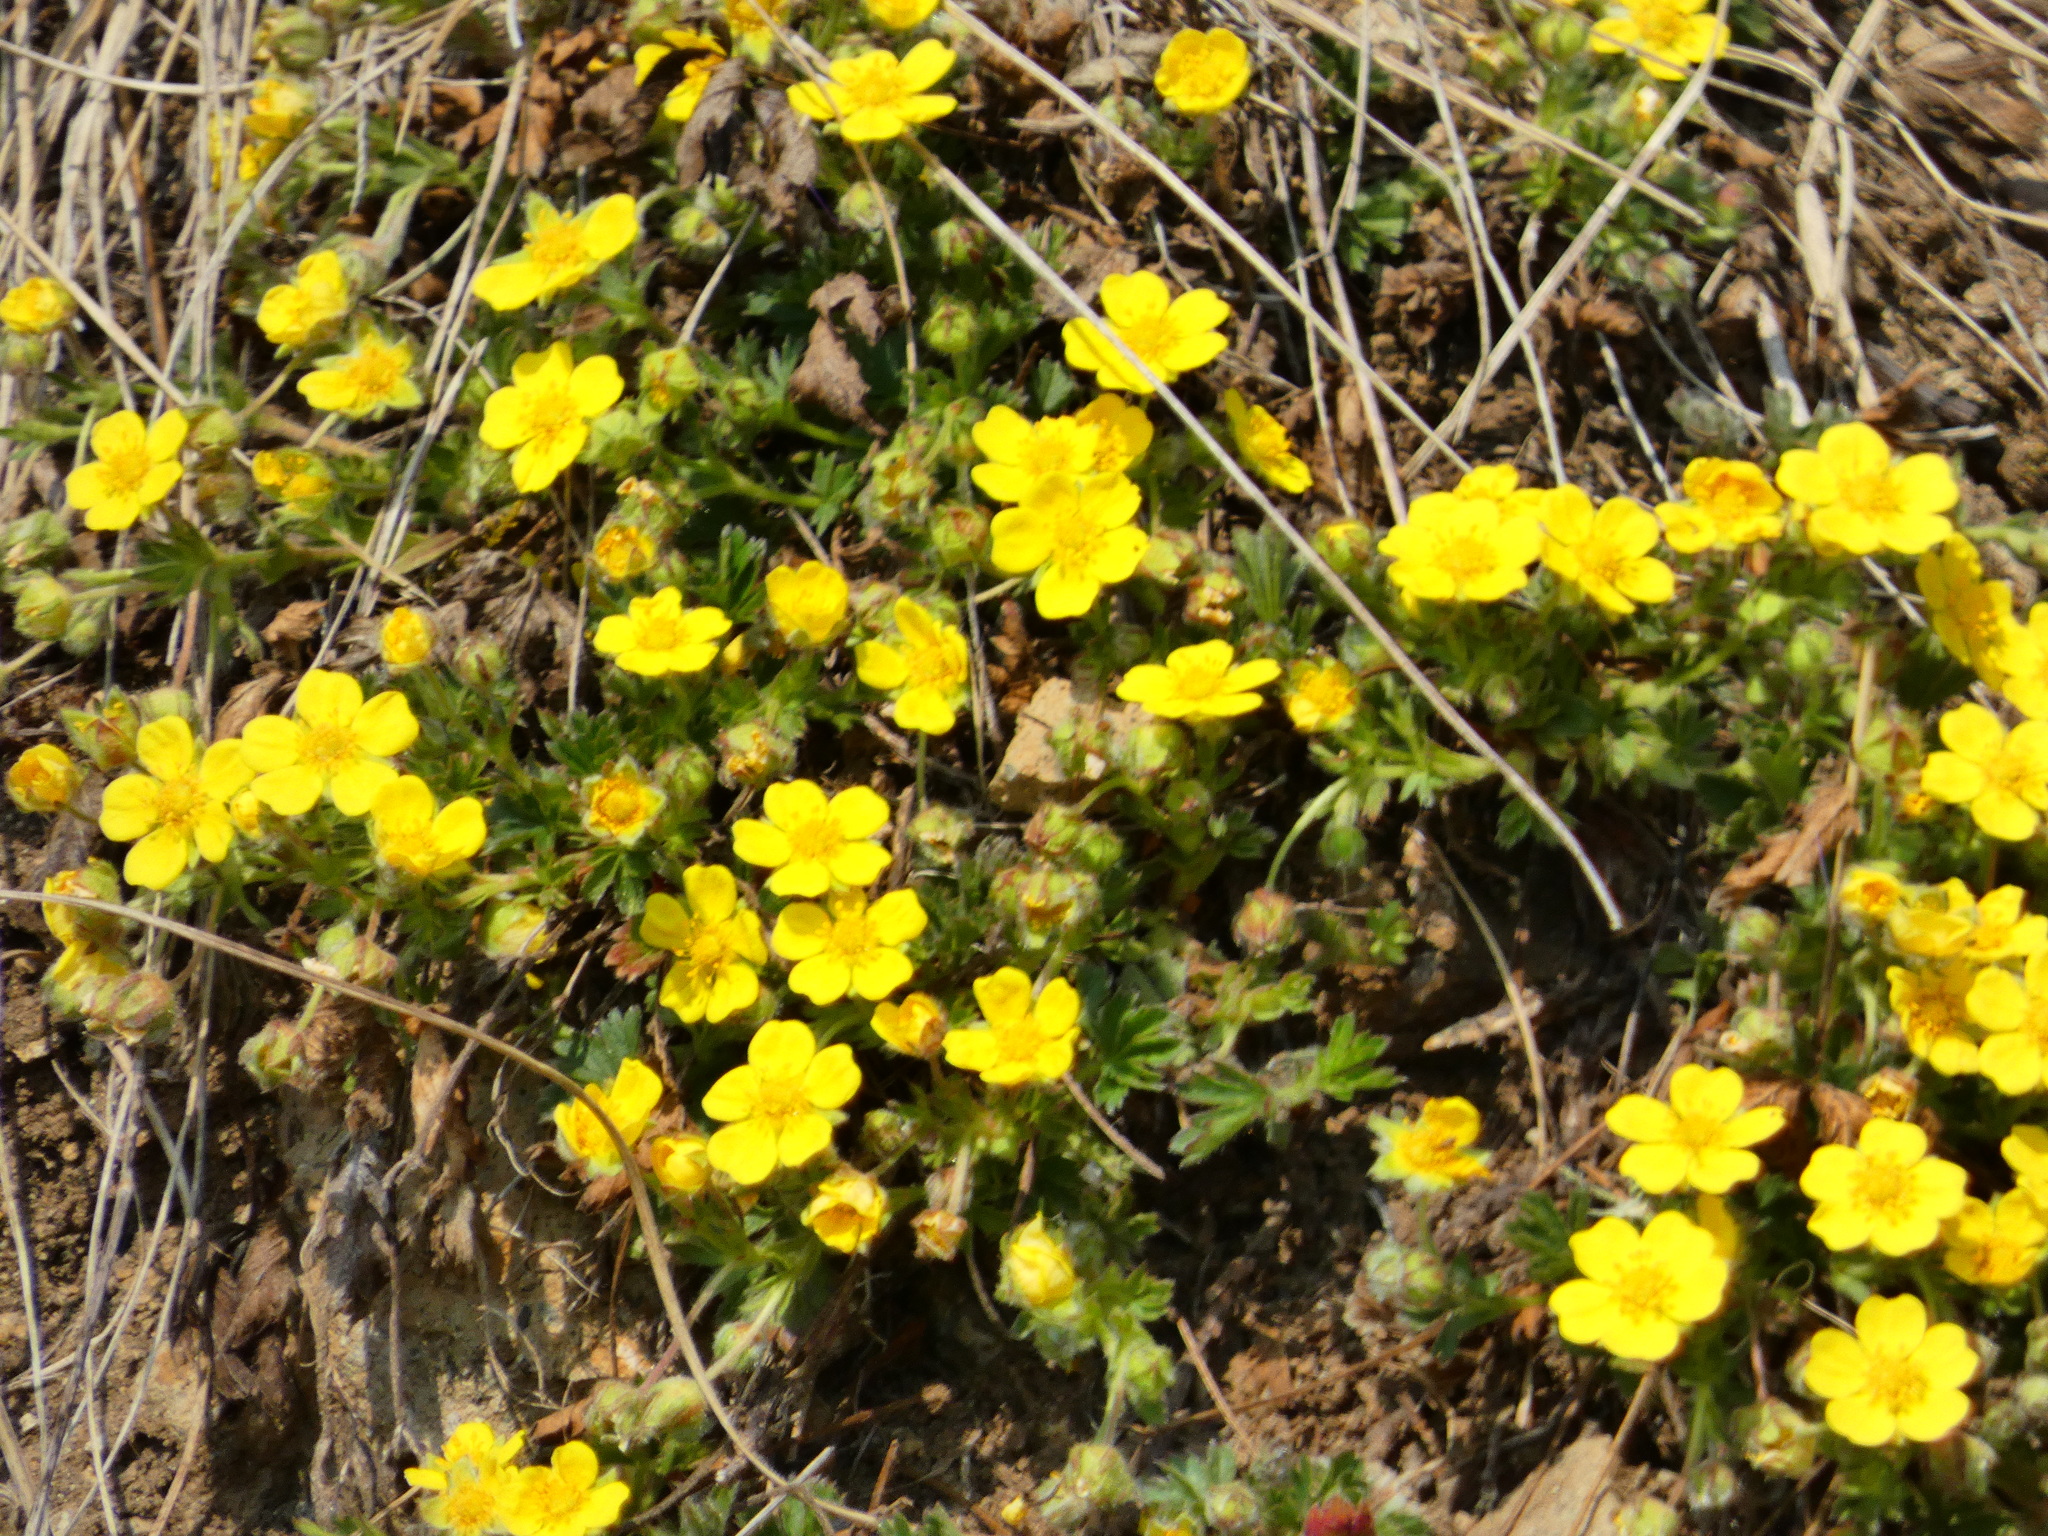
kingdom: Plantae
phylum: Tracheophyta
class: Magnoliopsida
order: Rosales
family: Rosaceae
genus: Potentilla
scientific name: Potentilla verna
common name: Spring cinquefoil
